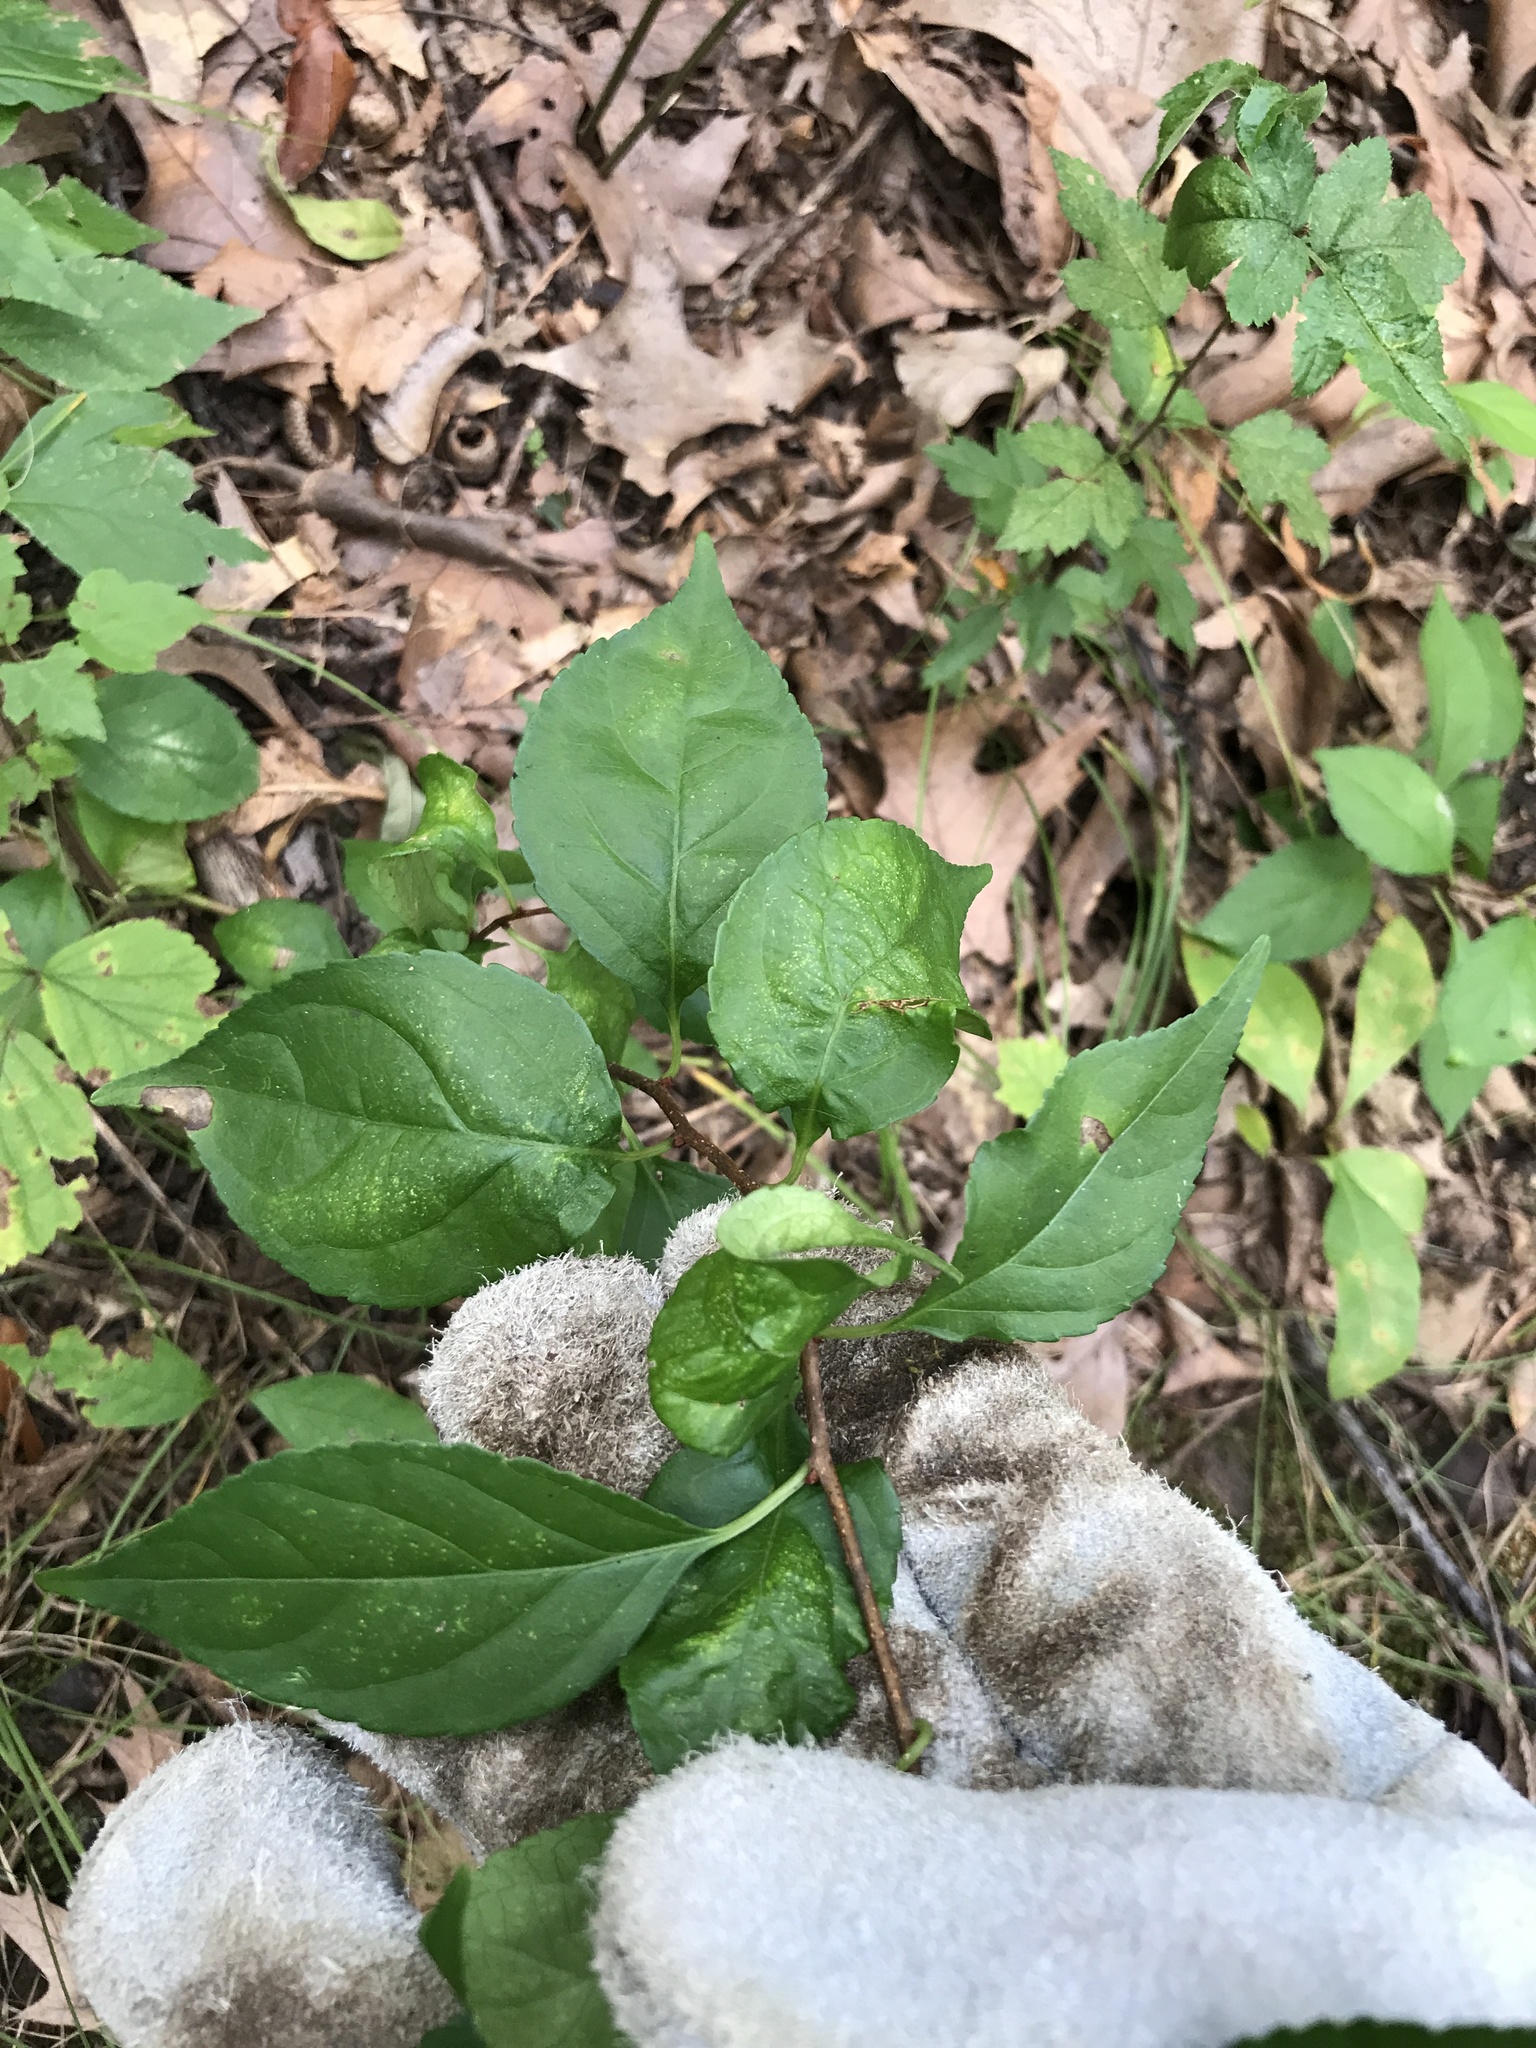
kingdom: Plantae
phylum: Tracheophyta
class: Magnoliopsida
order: Celastrales
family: Celastraceae
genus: Celastrus
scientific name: Celastrus orbiculatus
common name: Oriental bittersweet
